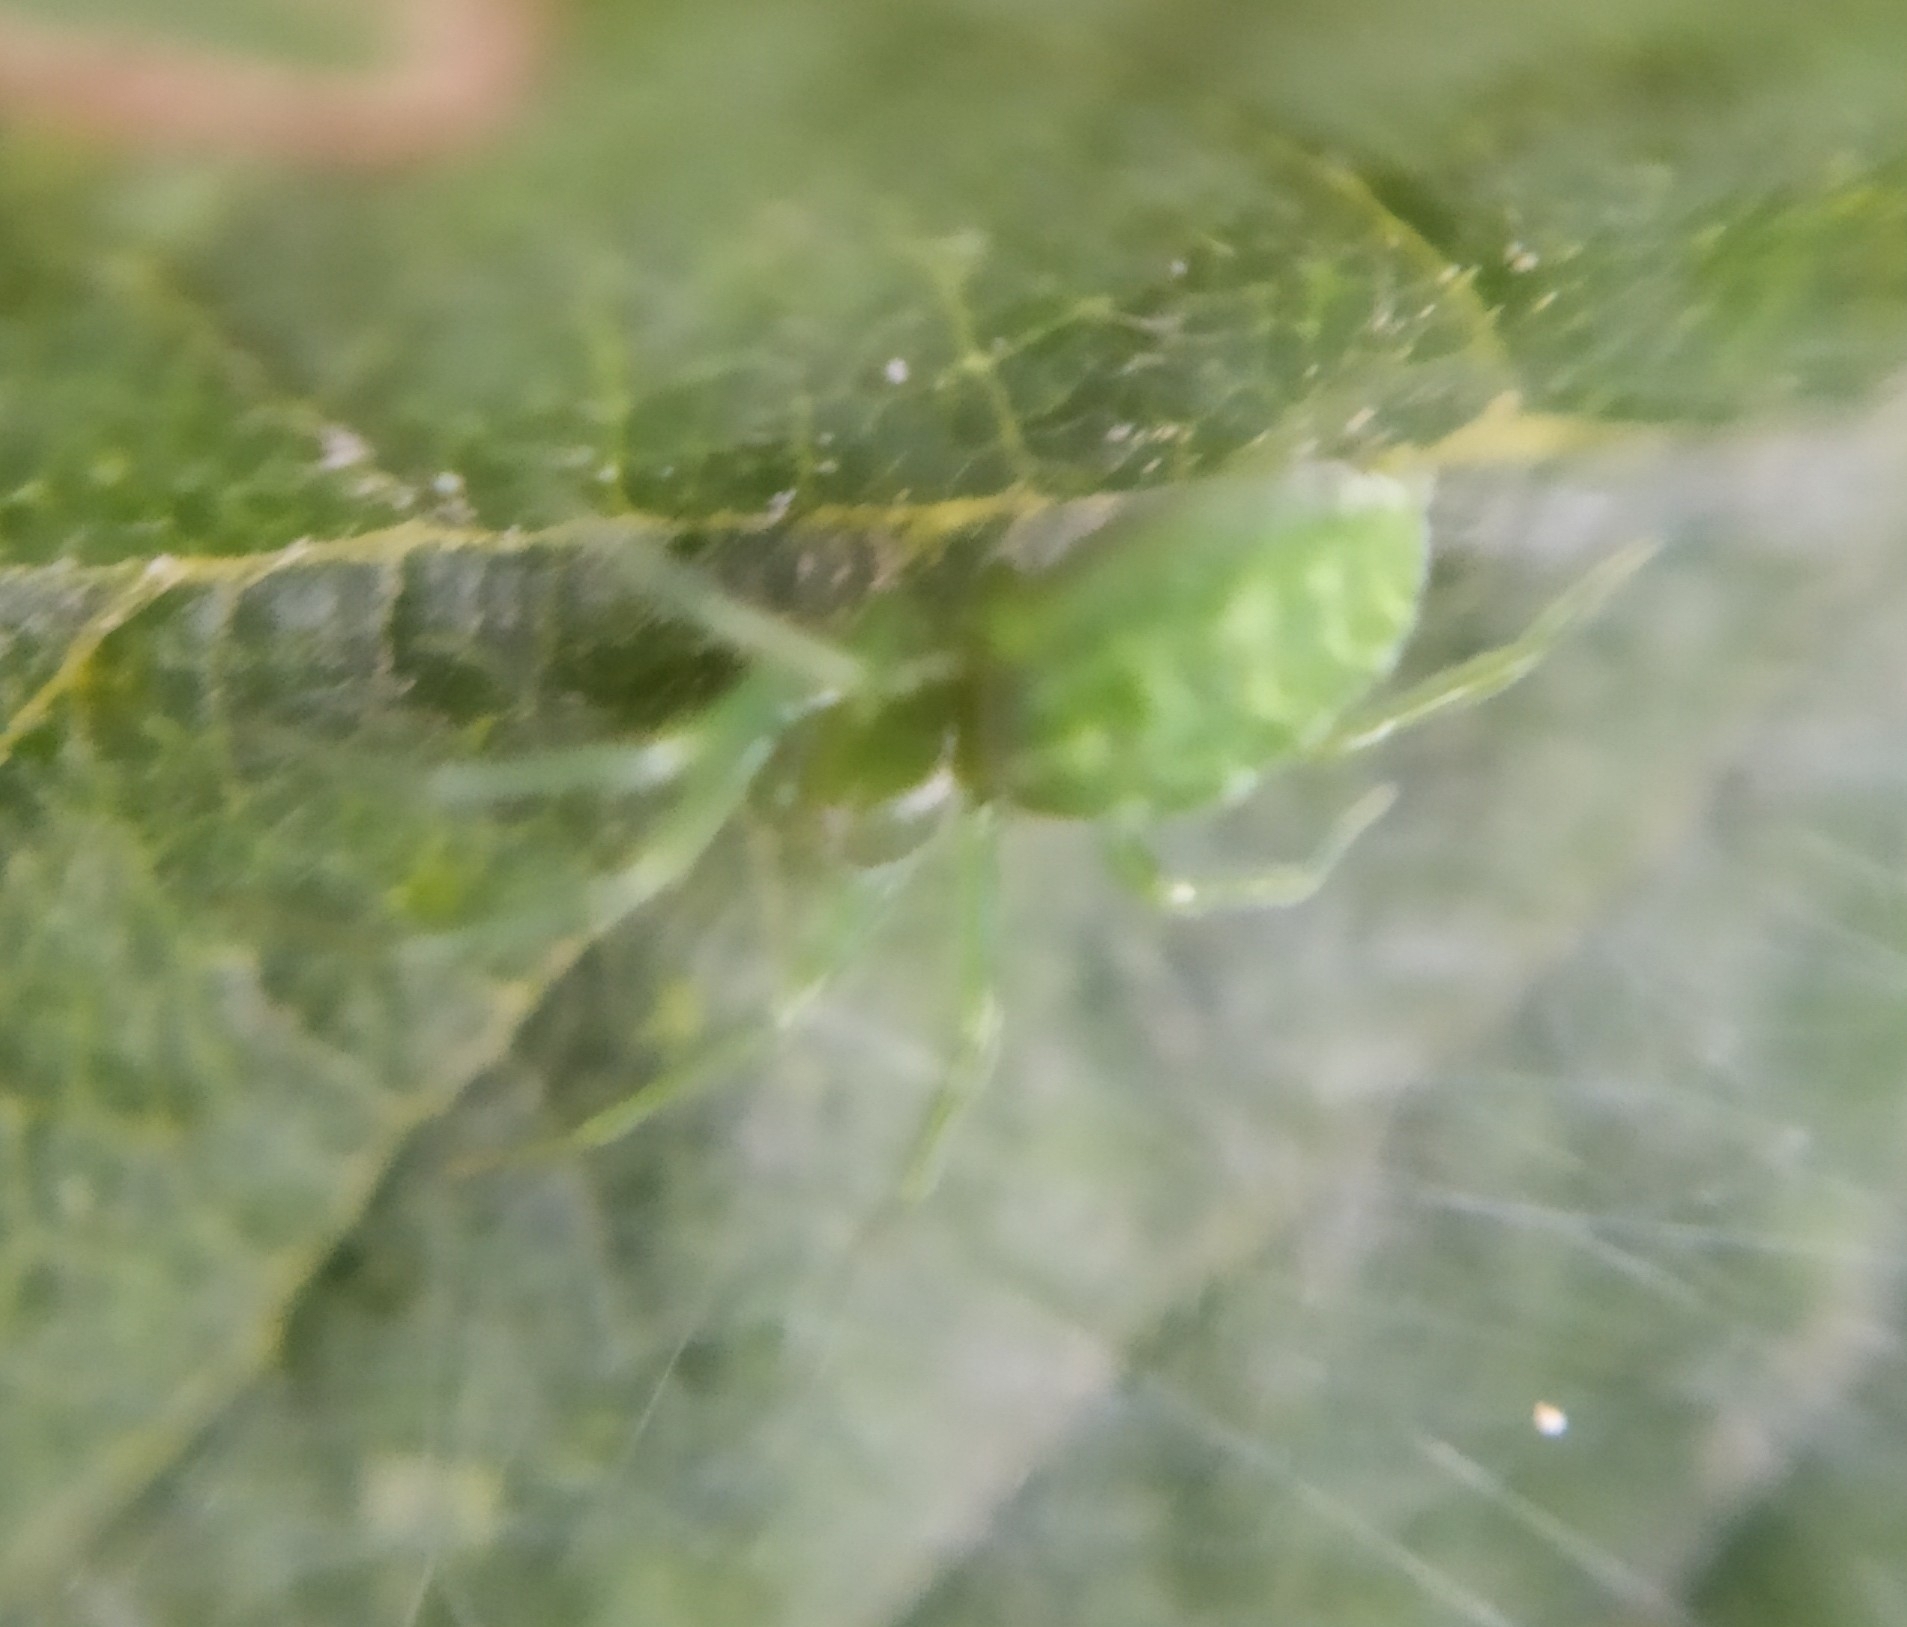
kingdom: Animalia
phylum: Arthropoda
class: Arachnida
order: Araneae
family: Dictynidae
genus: Nigma
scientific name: Nigma walckenaeri
